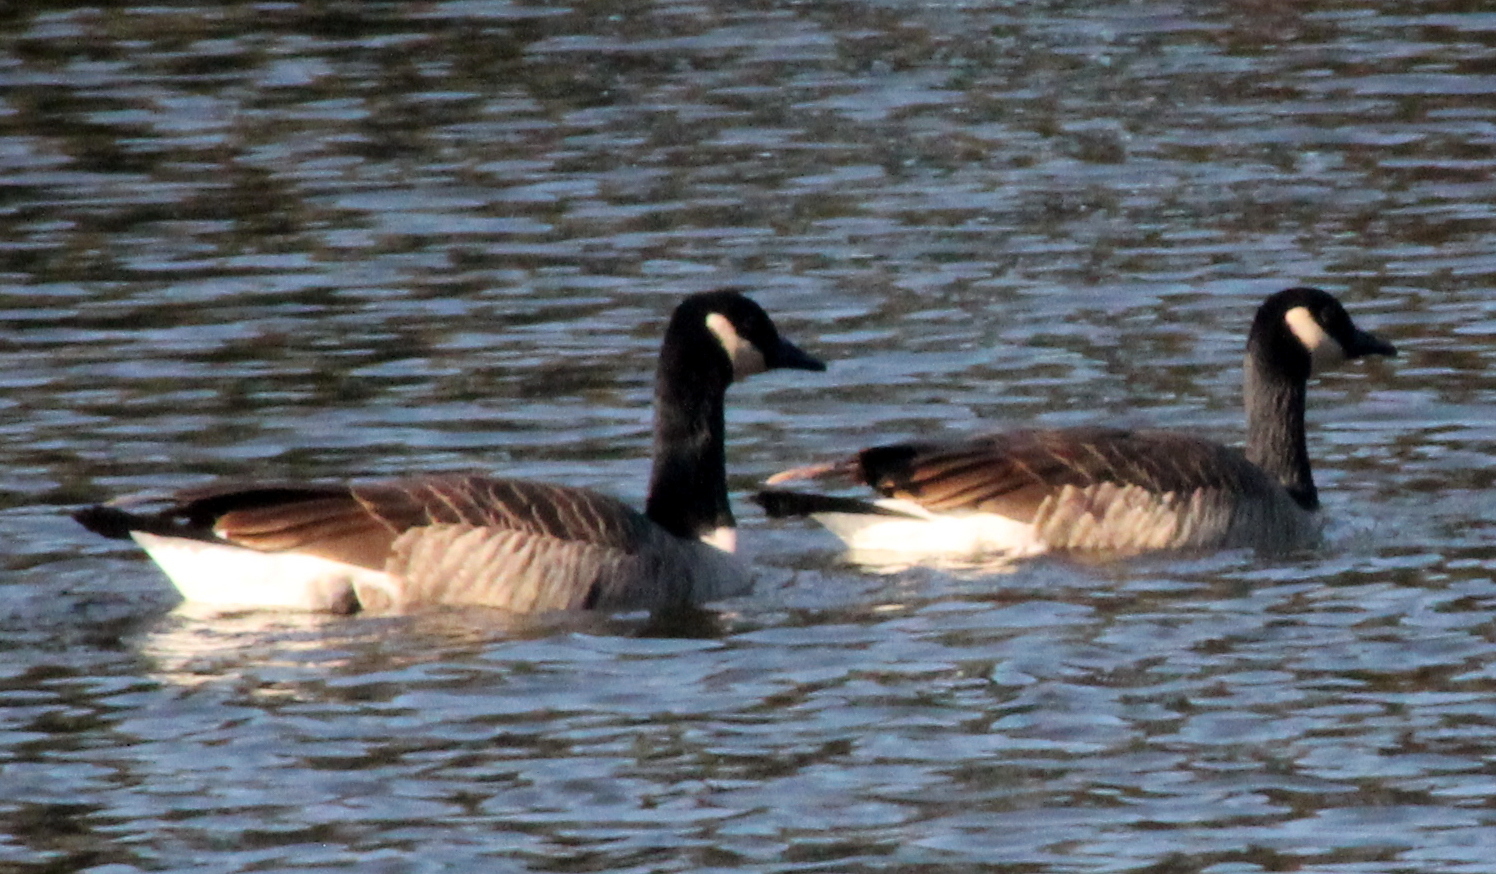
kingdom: Animalia
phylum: Chordata
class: Aves
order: Anseriformes
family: Anatidae
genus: Branta
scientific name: Branta canadensis
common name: Canada goose
